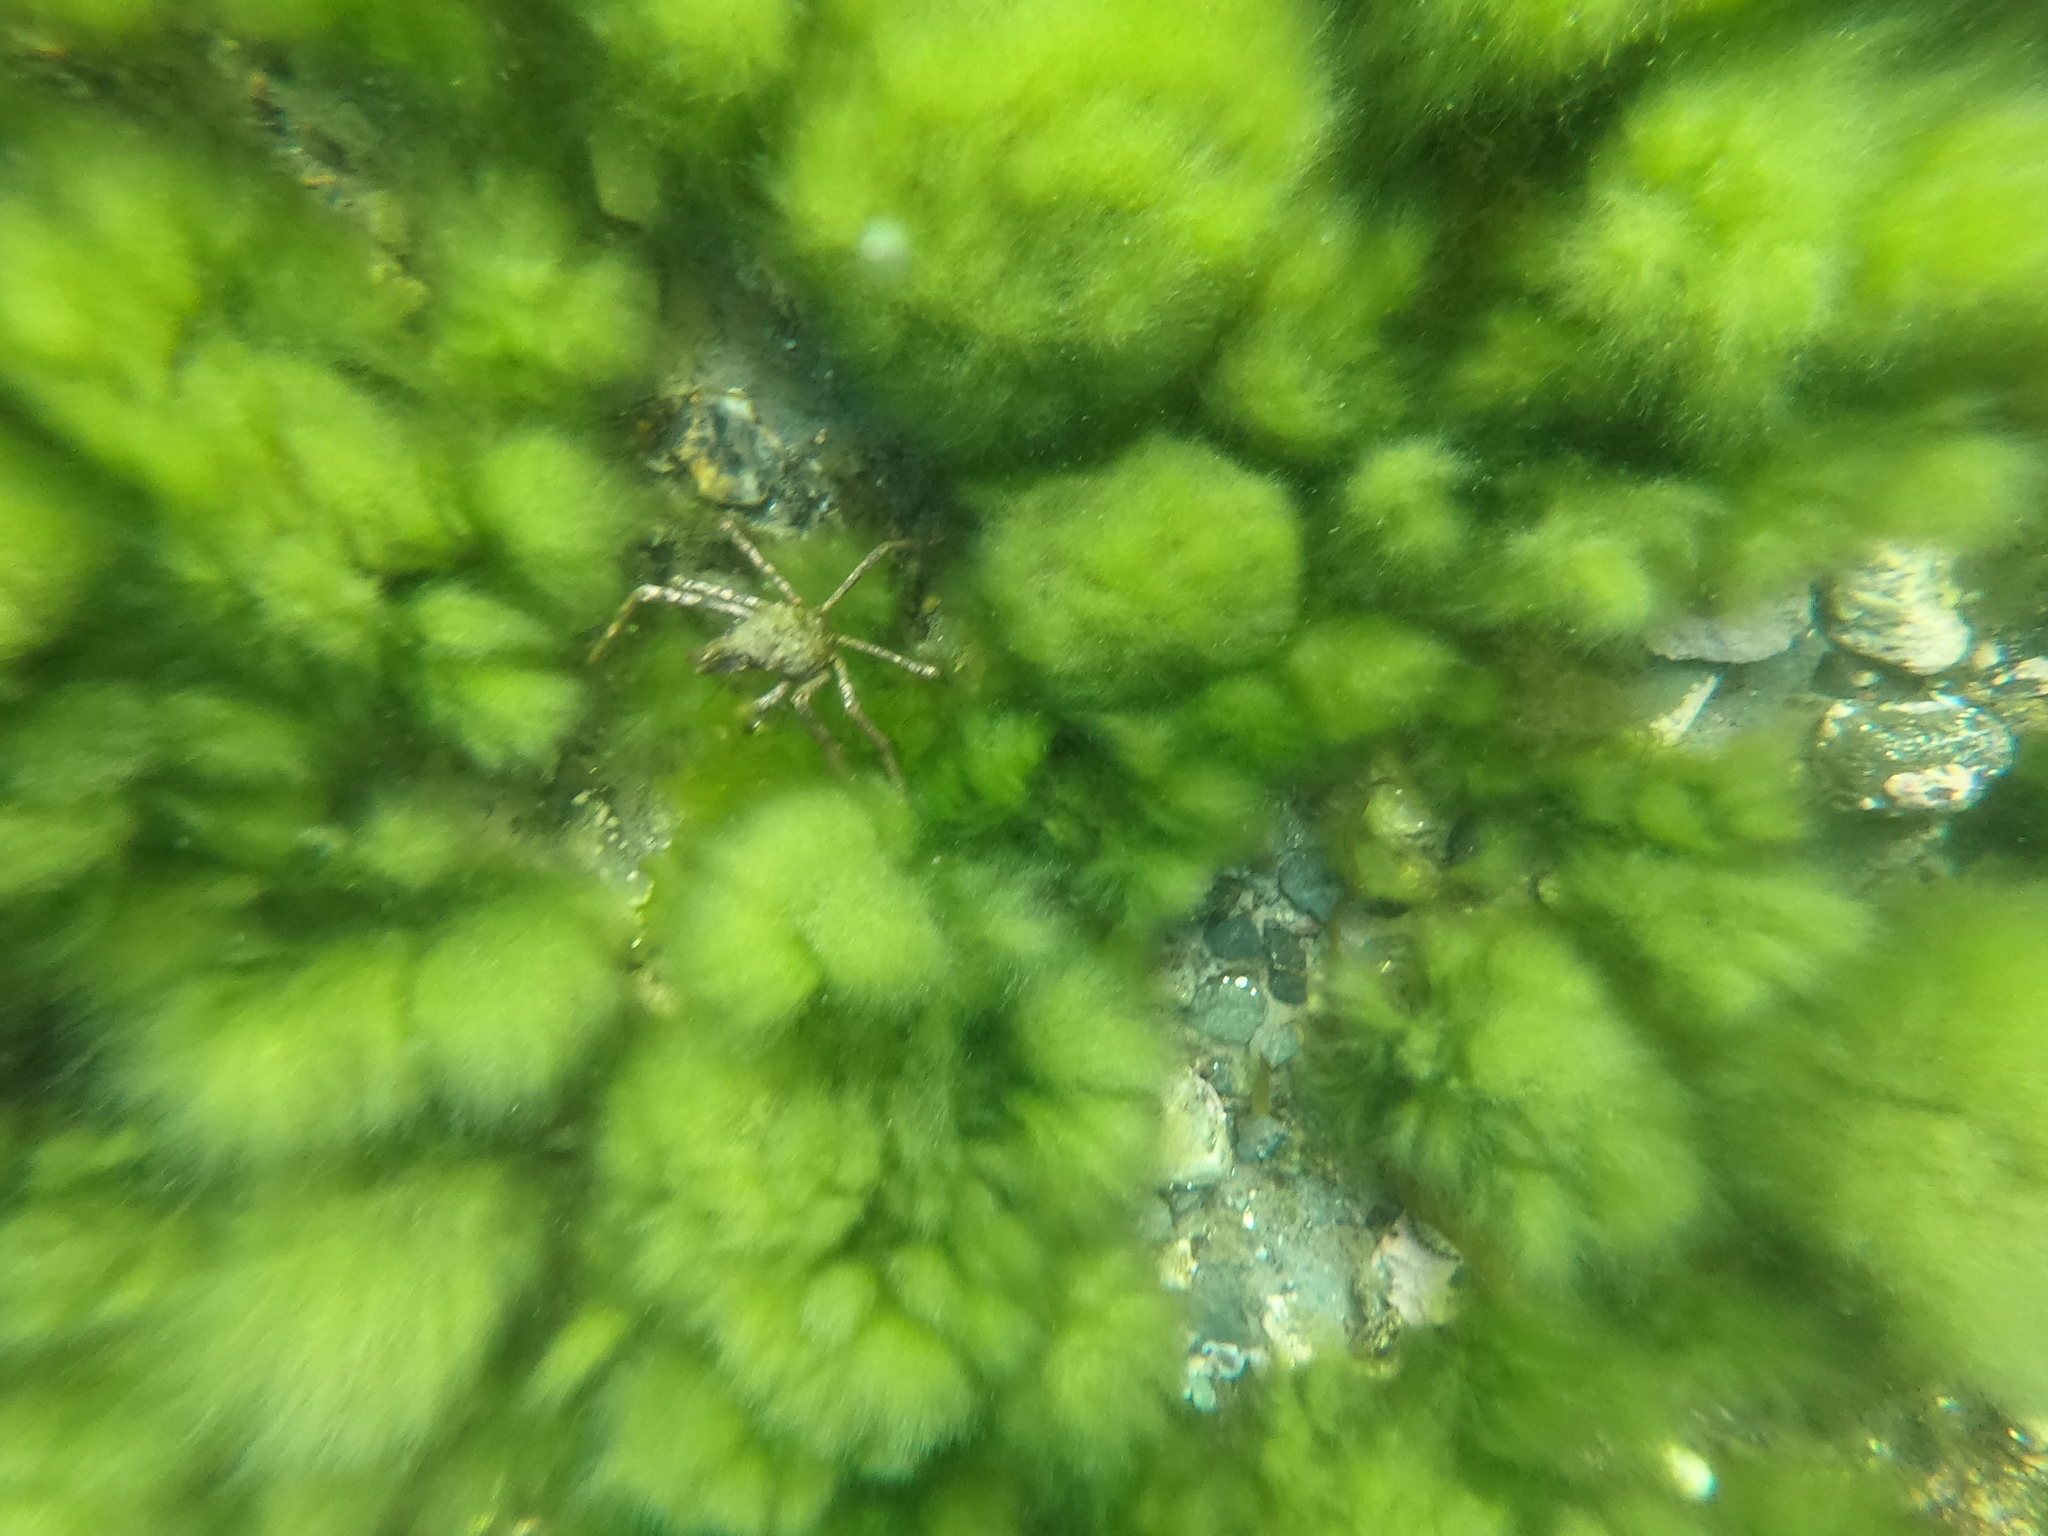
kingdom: Animalia
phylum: Arthropoda
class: Malacostraca
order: Decapoda
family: Inachidae
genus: Eurypodius
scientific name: Eurypodius longirostris
